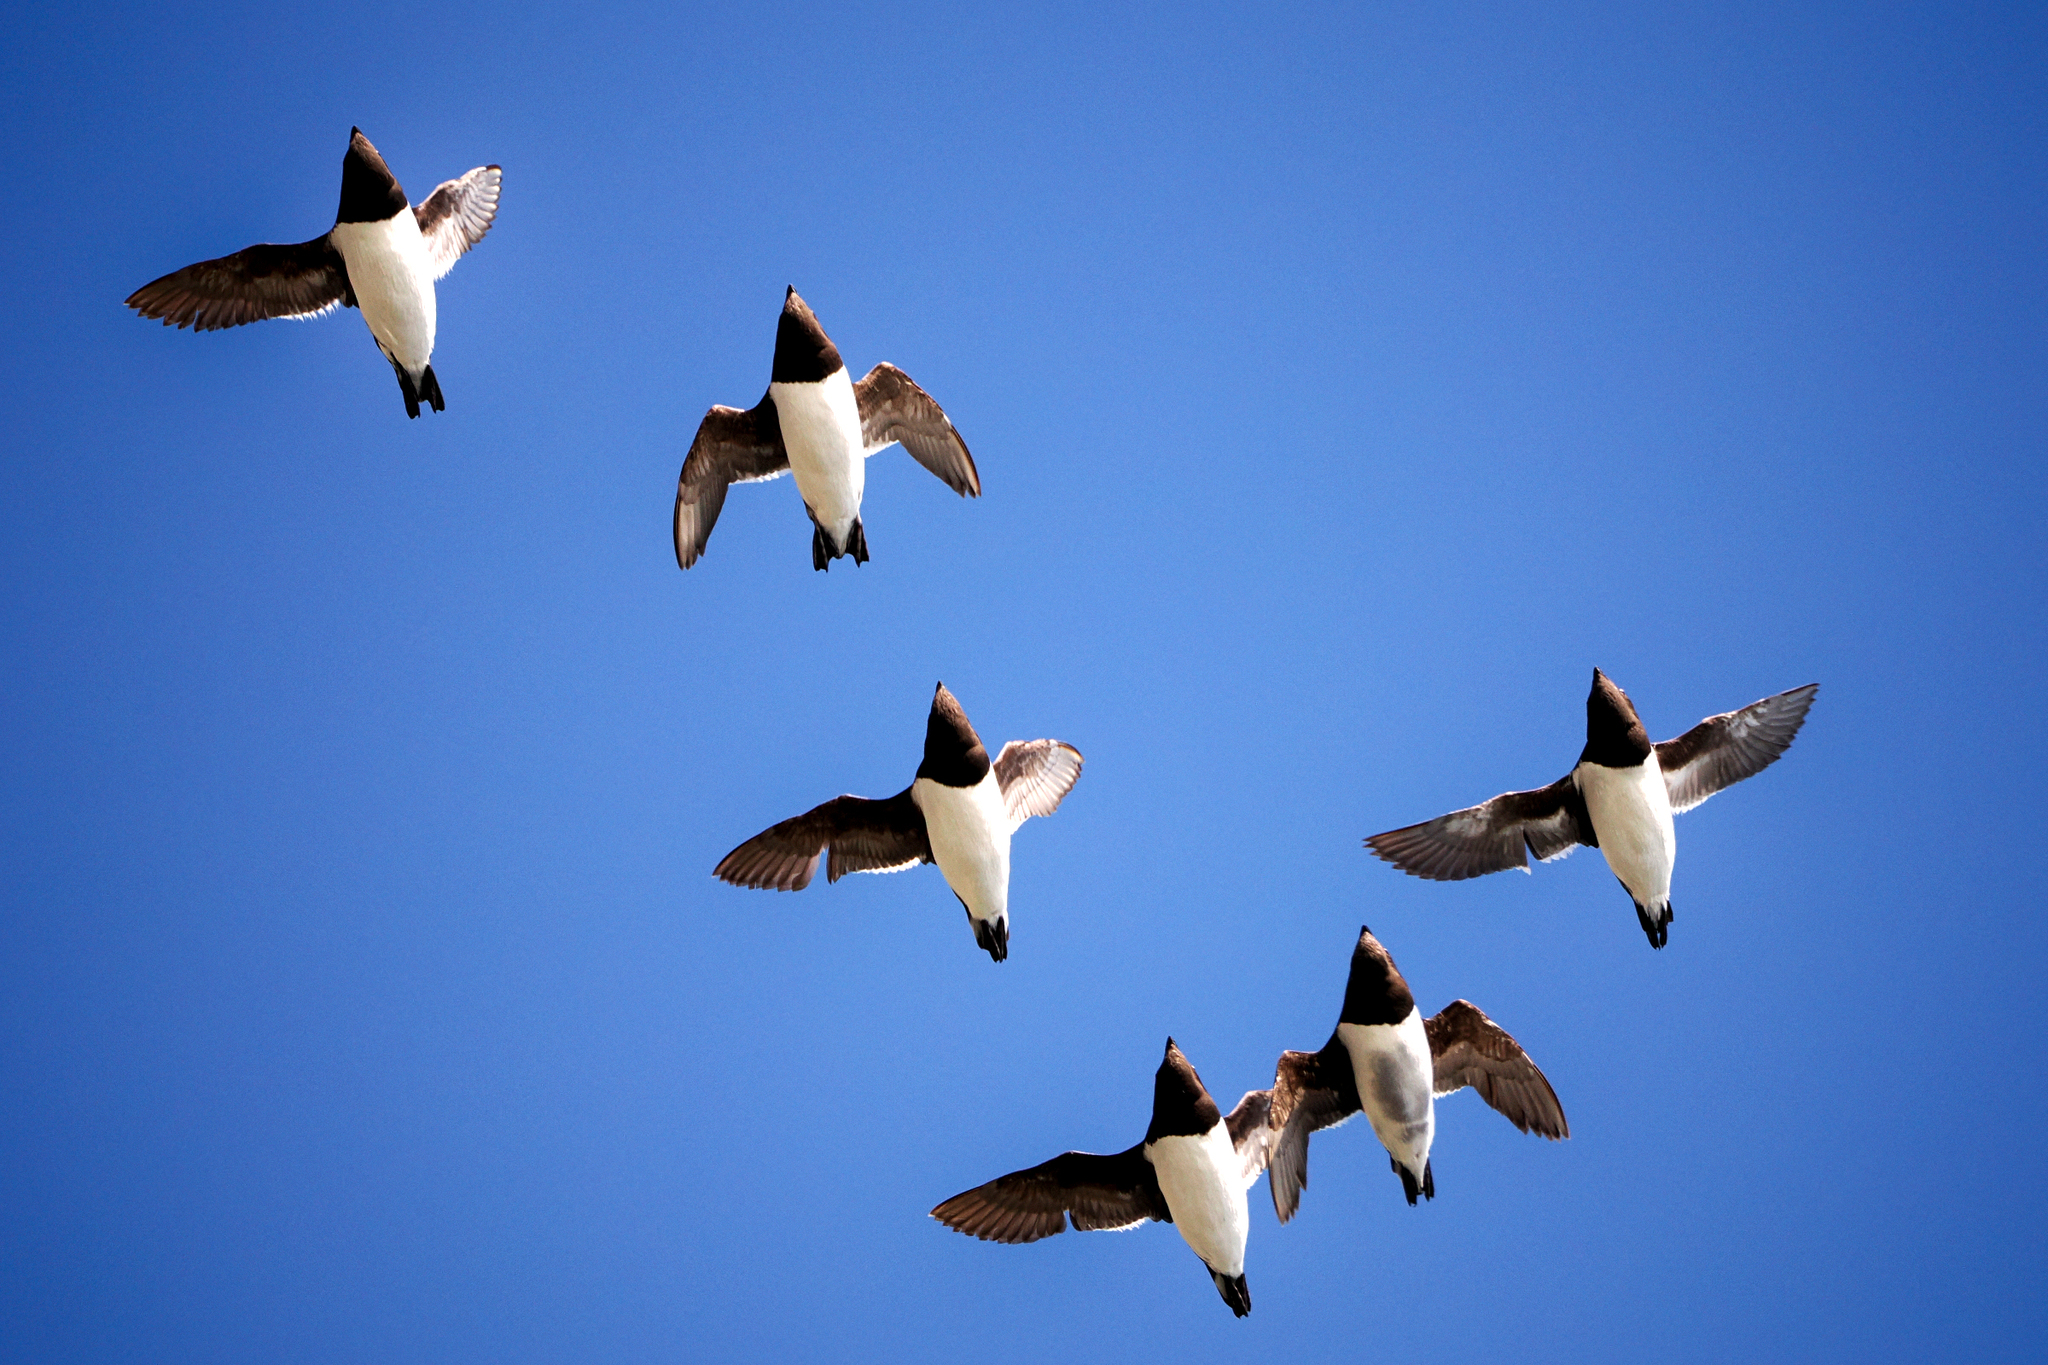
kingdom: Animalia
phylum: Chordata
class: Aves
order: Charadriiformes
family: Alcidae
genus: Alle
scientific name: Alle alle
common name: Little auk
